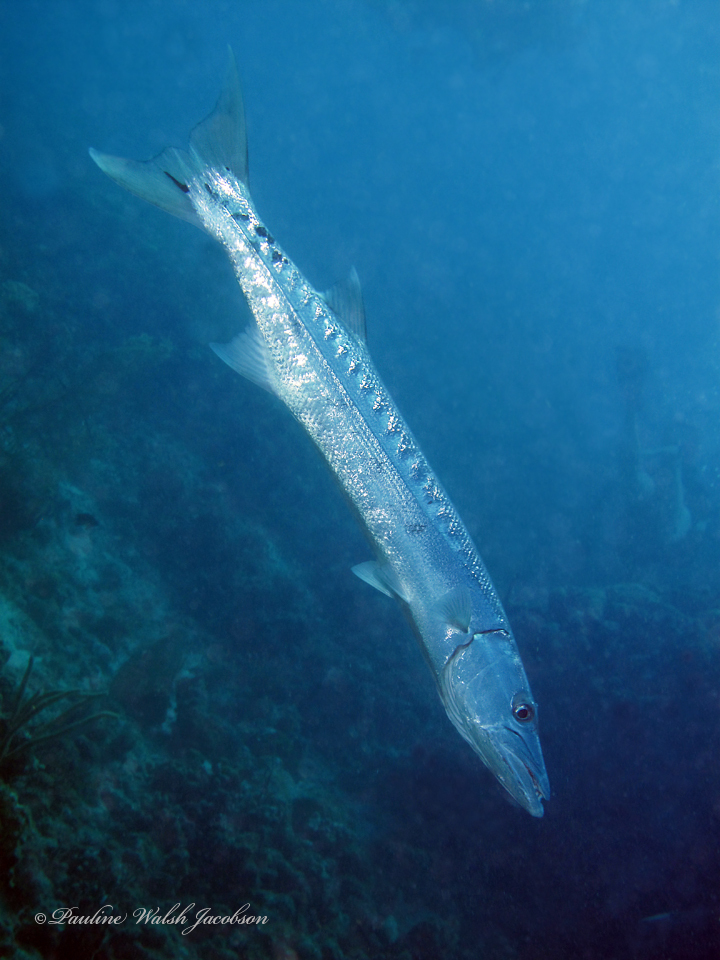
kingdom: Animalia
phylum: Chordata
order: Perciformes
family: Sphyraenidae
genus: Sphyraena
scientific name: Sphyraena barracuda
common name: Great barracuda
